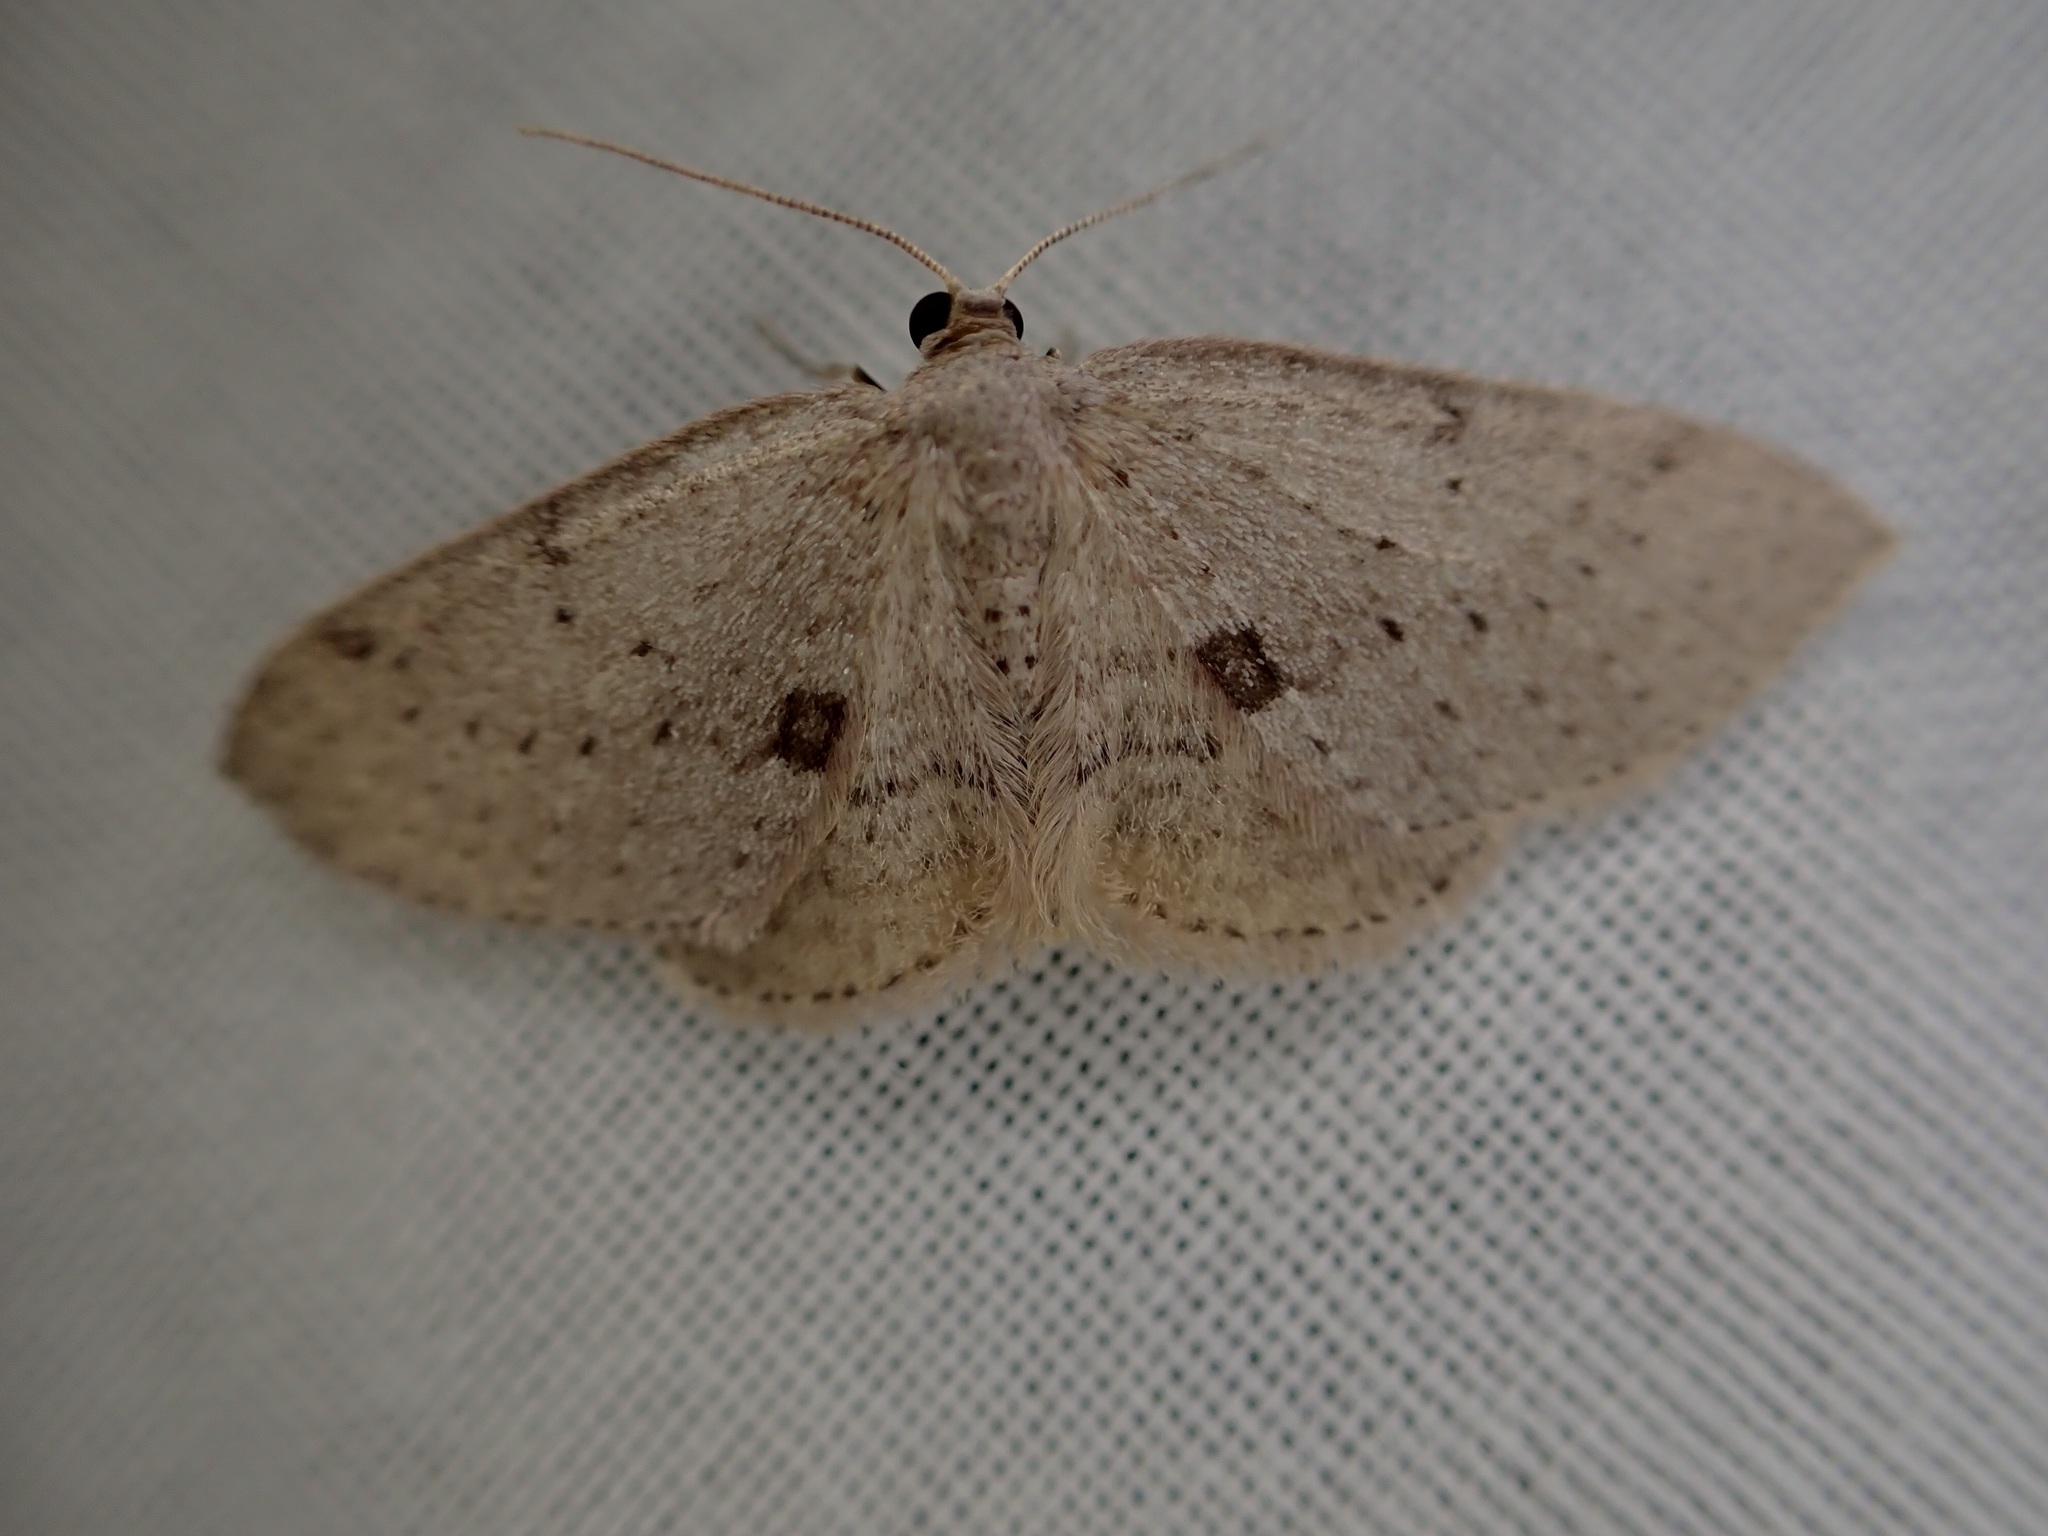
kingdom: Animalia
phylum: Arthropoda
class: Insecta
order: Lepidoptera
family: Geometridae
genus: Poecilasthena
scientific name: Poecilasthena schistaria
